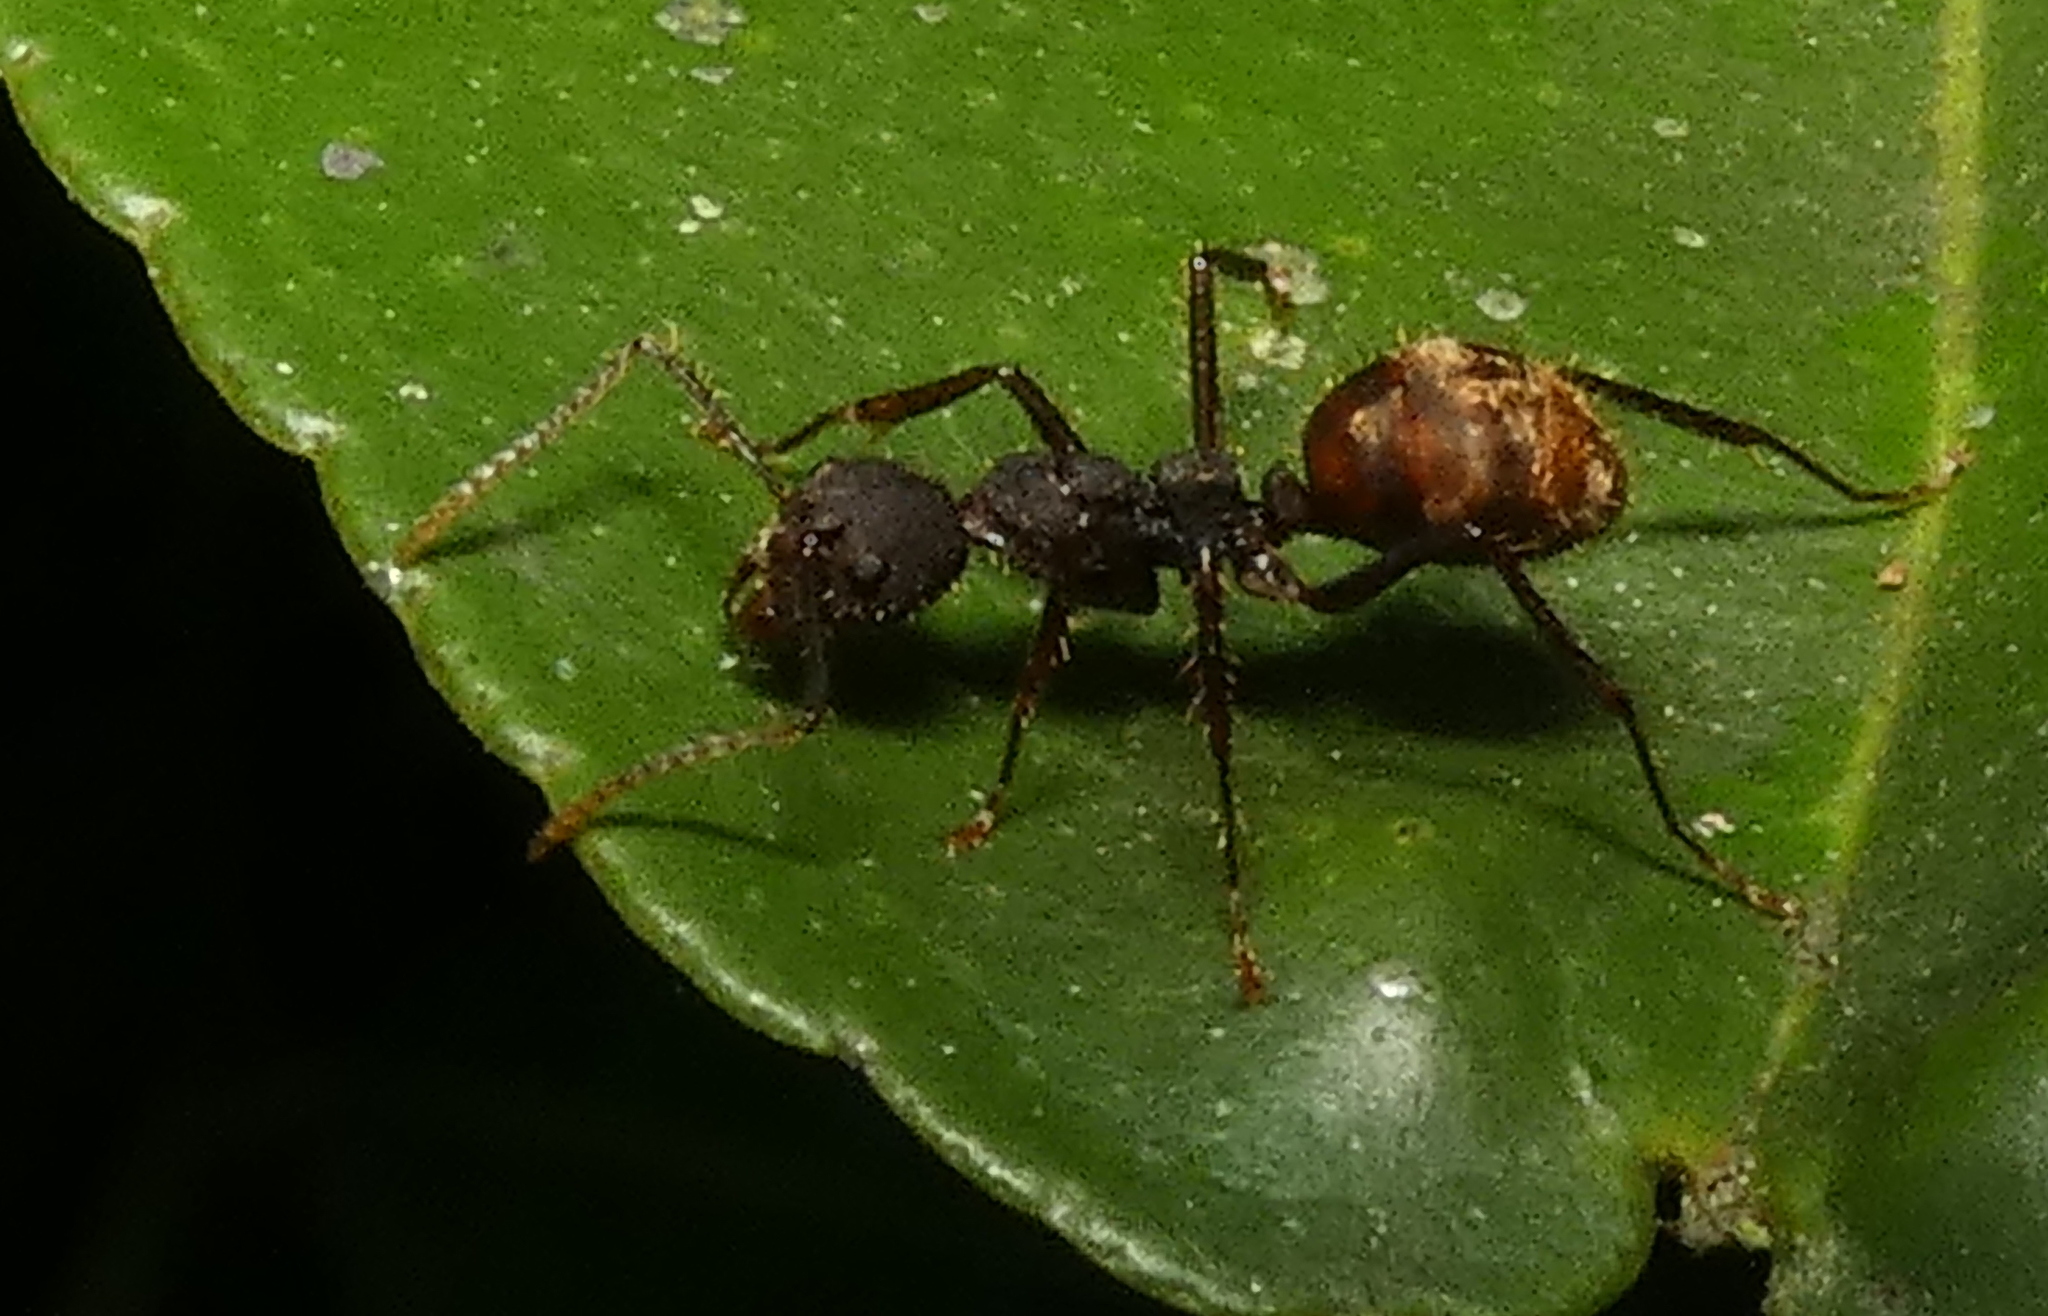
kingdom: Animalia
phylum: Arthropoda
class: Insecta
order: Hymenoptera
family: Formicidae
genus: Dolichoderus
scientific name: Dolichoderus bidens
